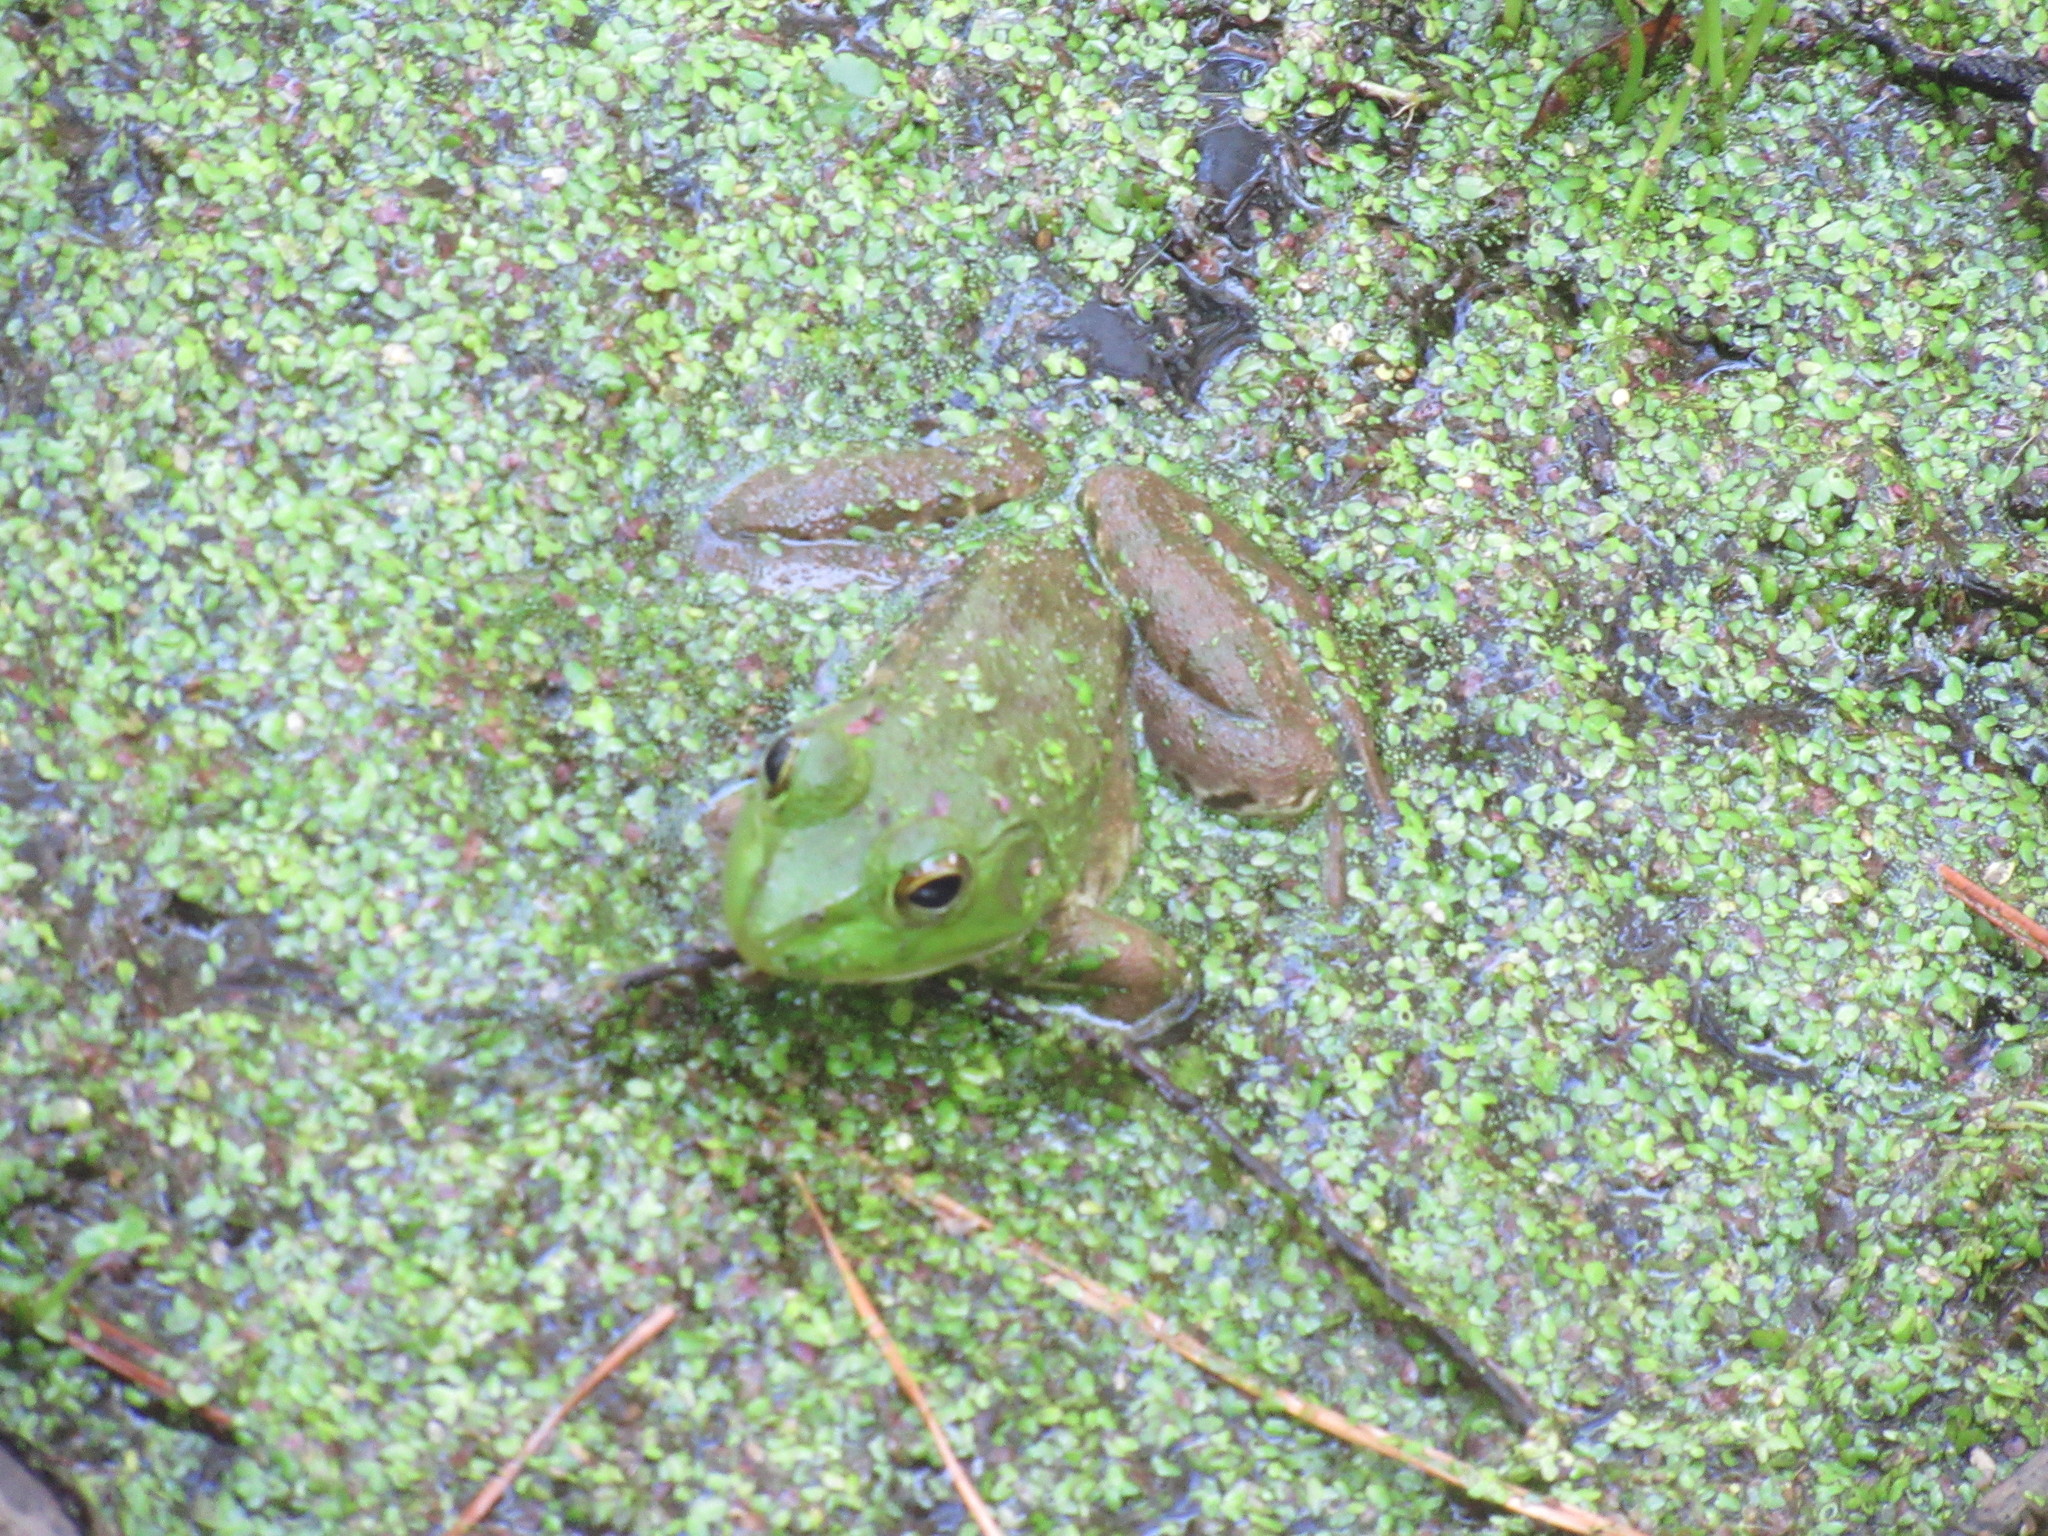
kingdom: Animalia
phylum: Chordata
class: Amphibia
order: Anura
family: Ranidae
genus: Lithobates
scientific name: Lithobates catesbeianus
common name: American bullfrog
